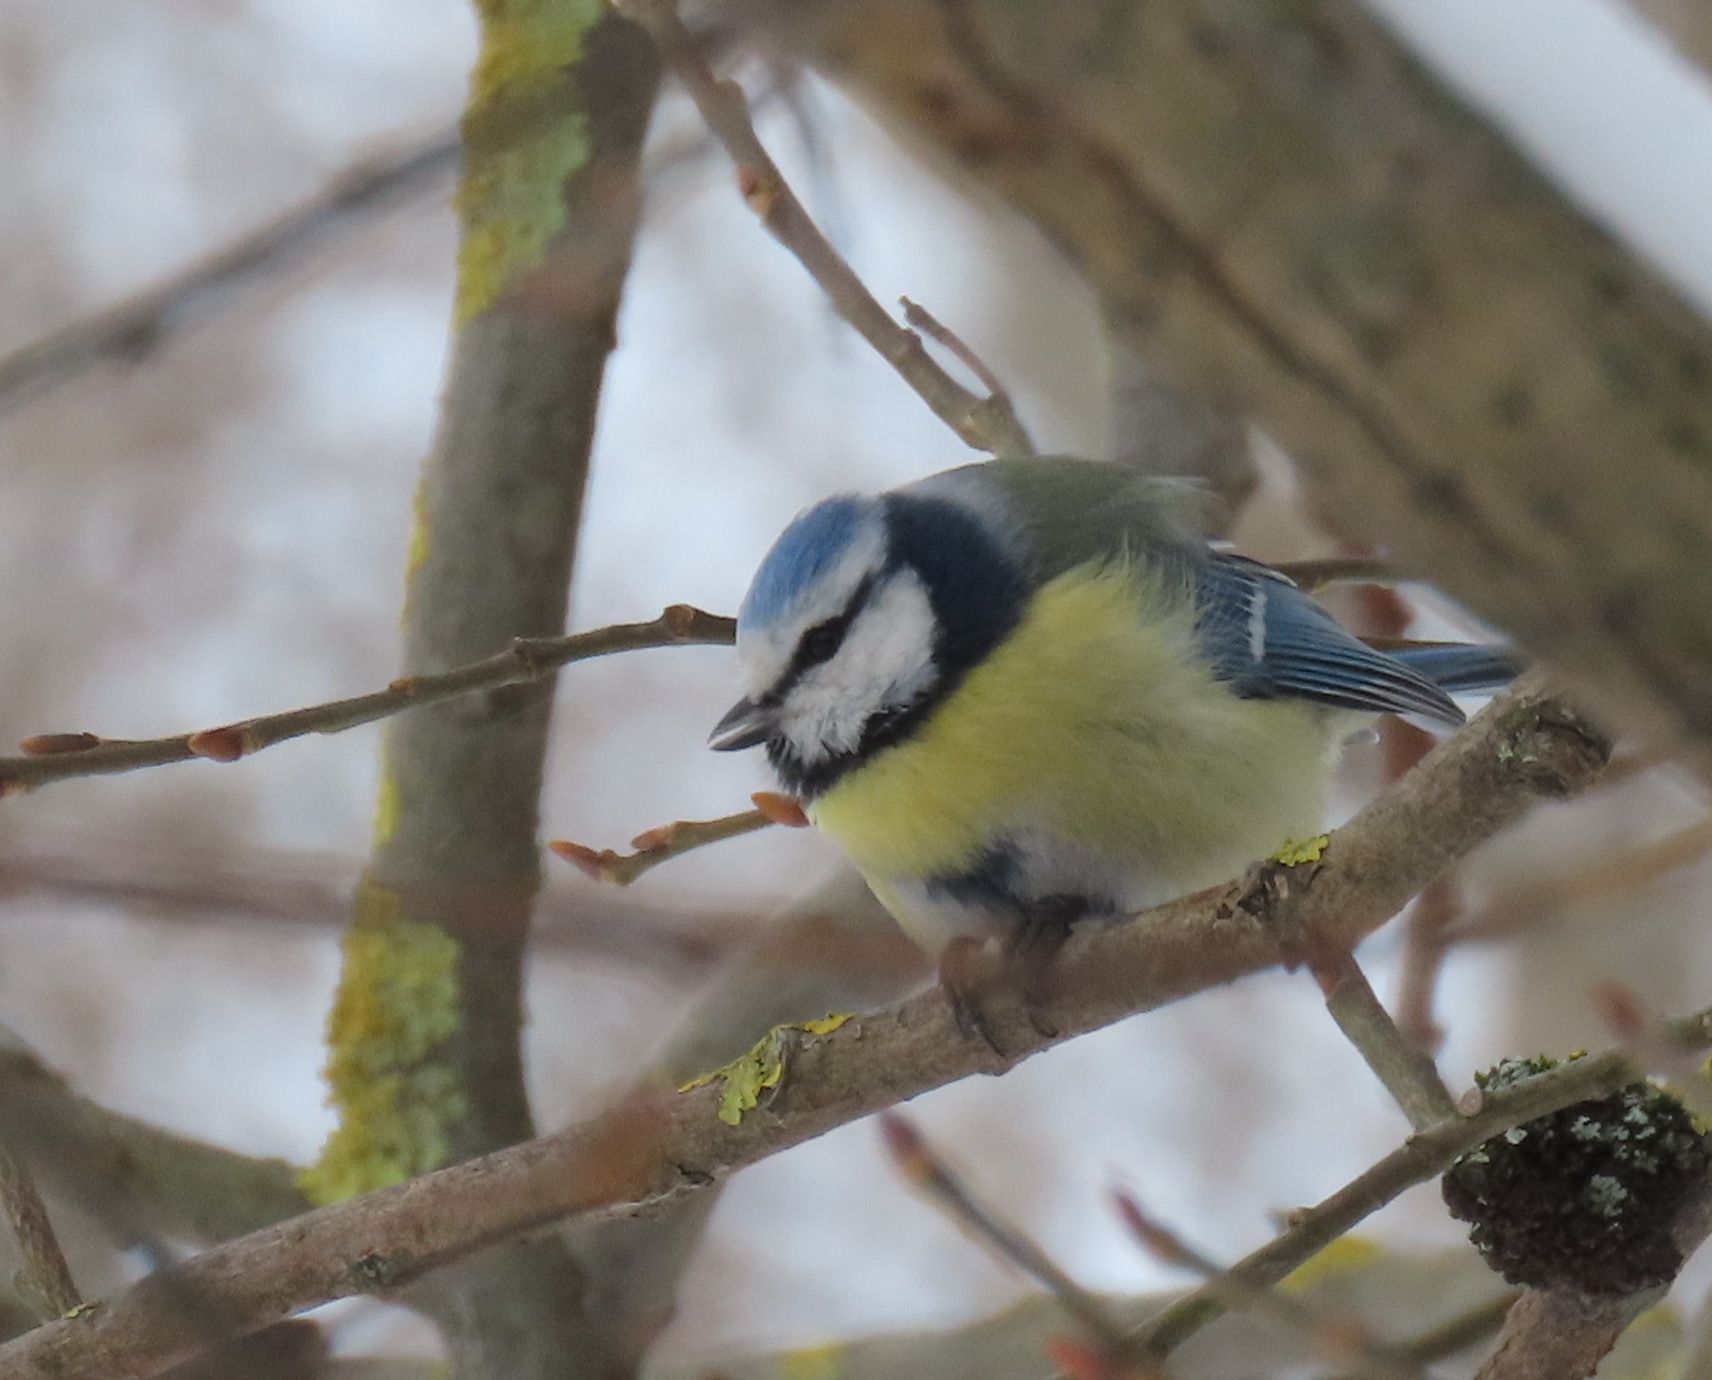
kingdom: Animalia
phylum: Chordata
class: Aves
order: Passeriformes
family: Paridae
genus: Cyanistes
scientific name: Cyanistes caeruleus
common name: Eurasian blue tit
